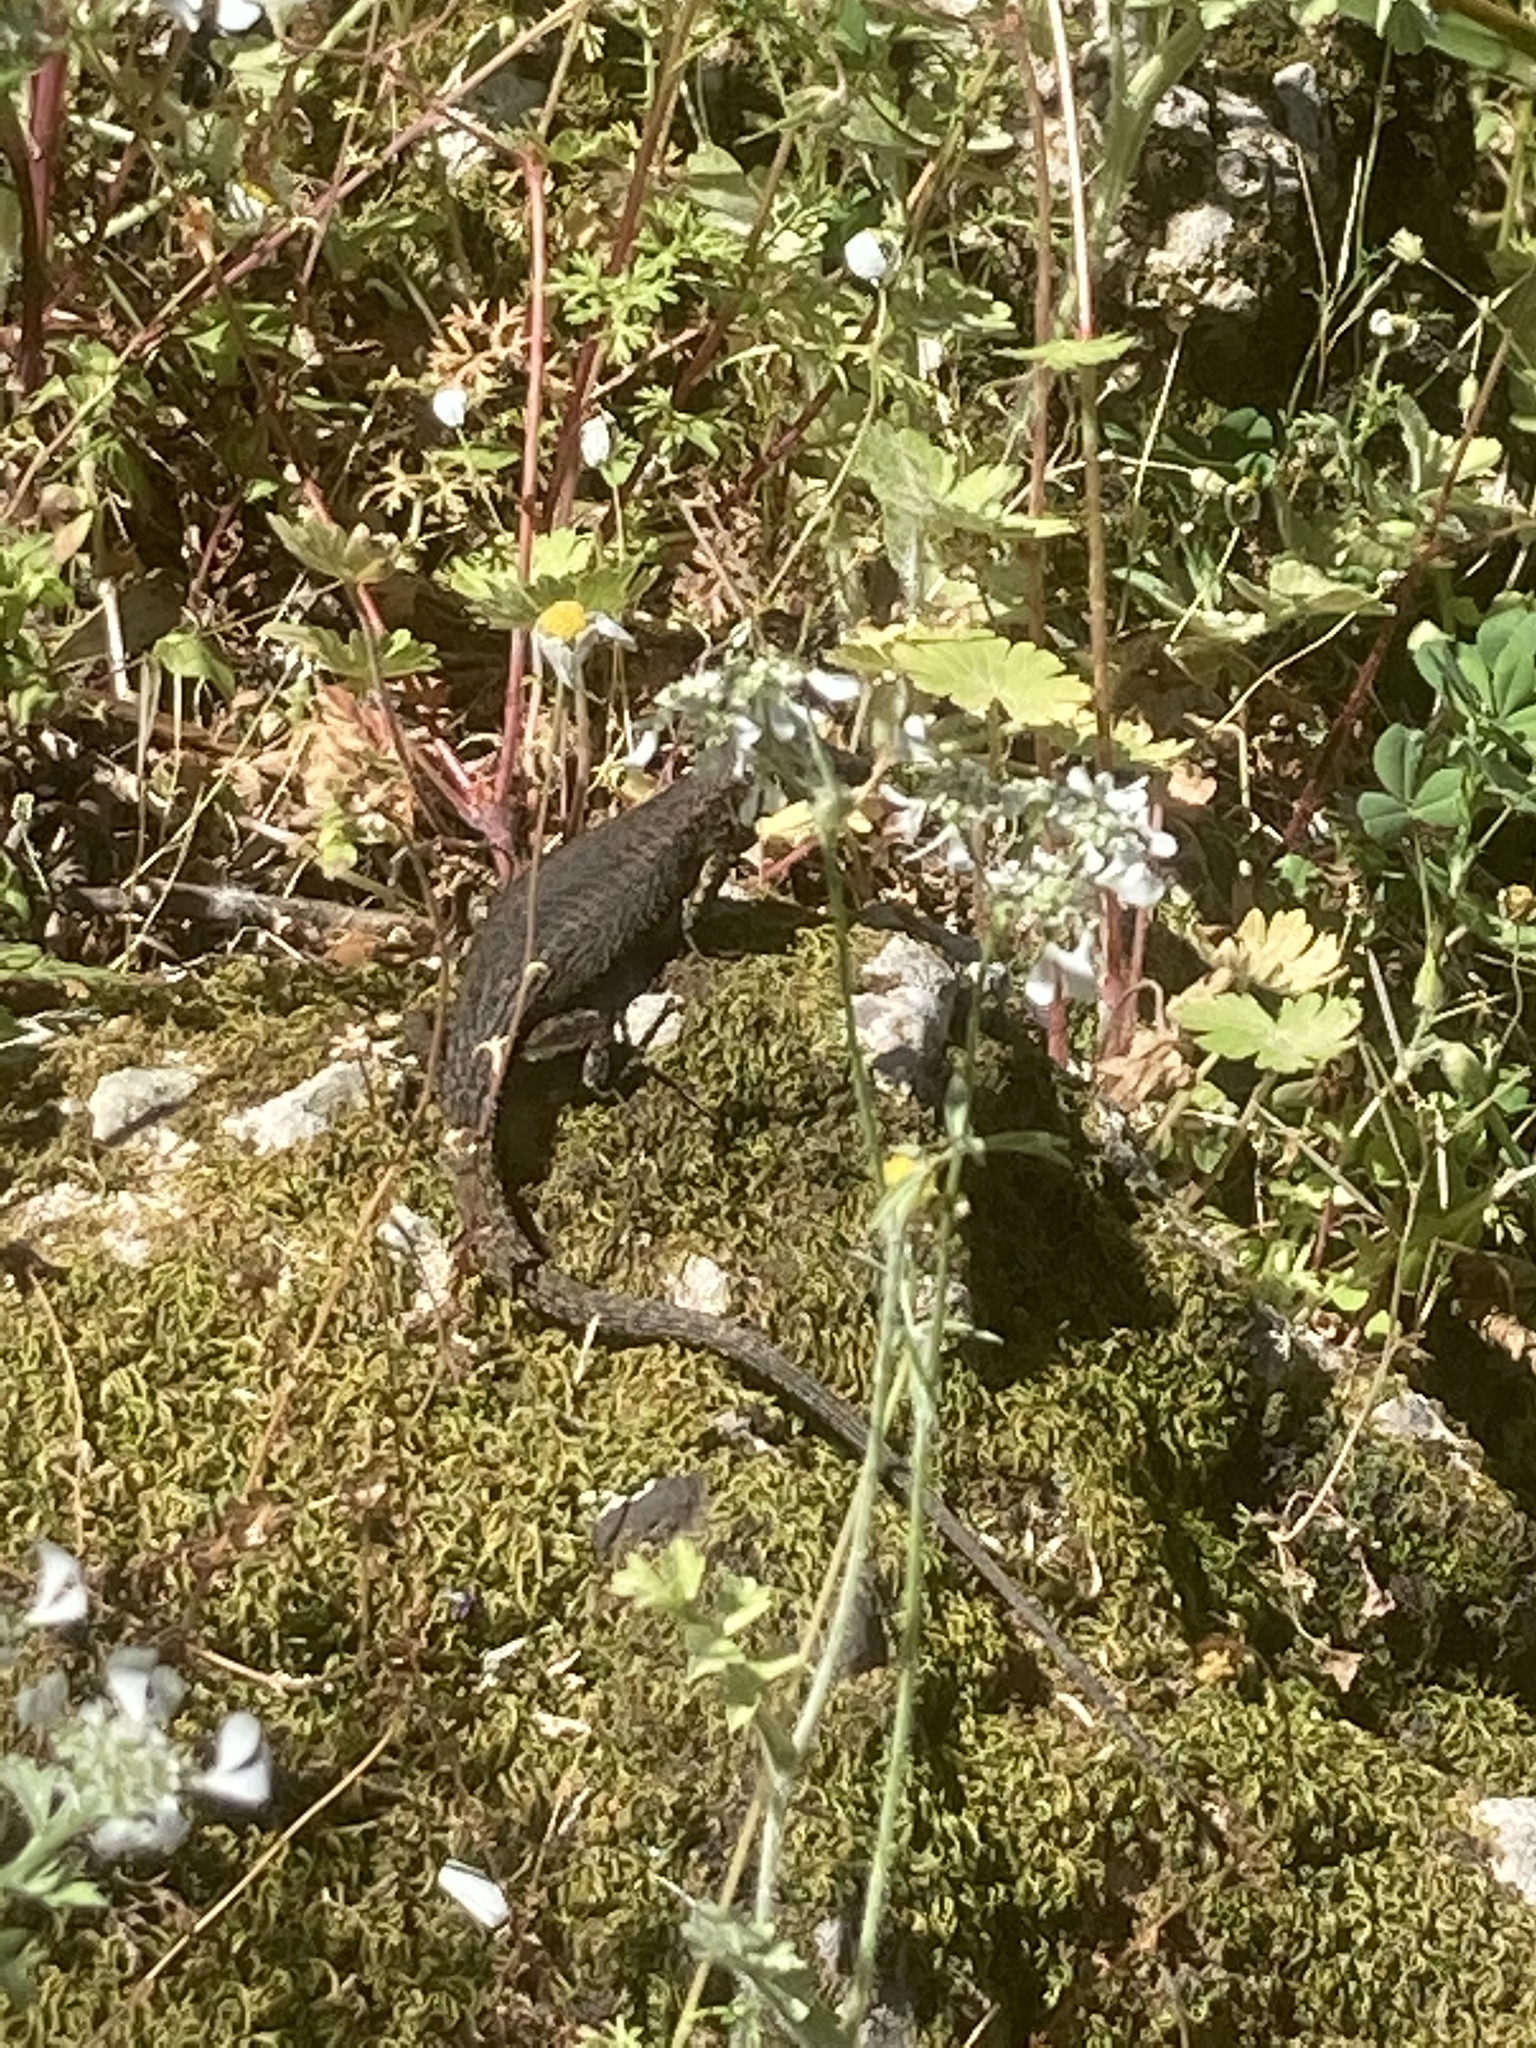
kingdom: Animalia
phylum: Chordata
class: Squamata
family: Lacertidae
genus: Algyroides
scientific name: Algyroides nigropunctatus
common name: Blue-throated keeled lizard
